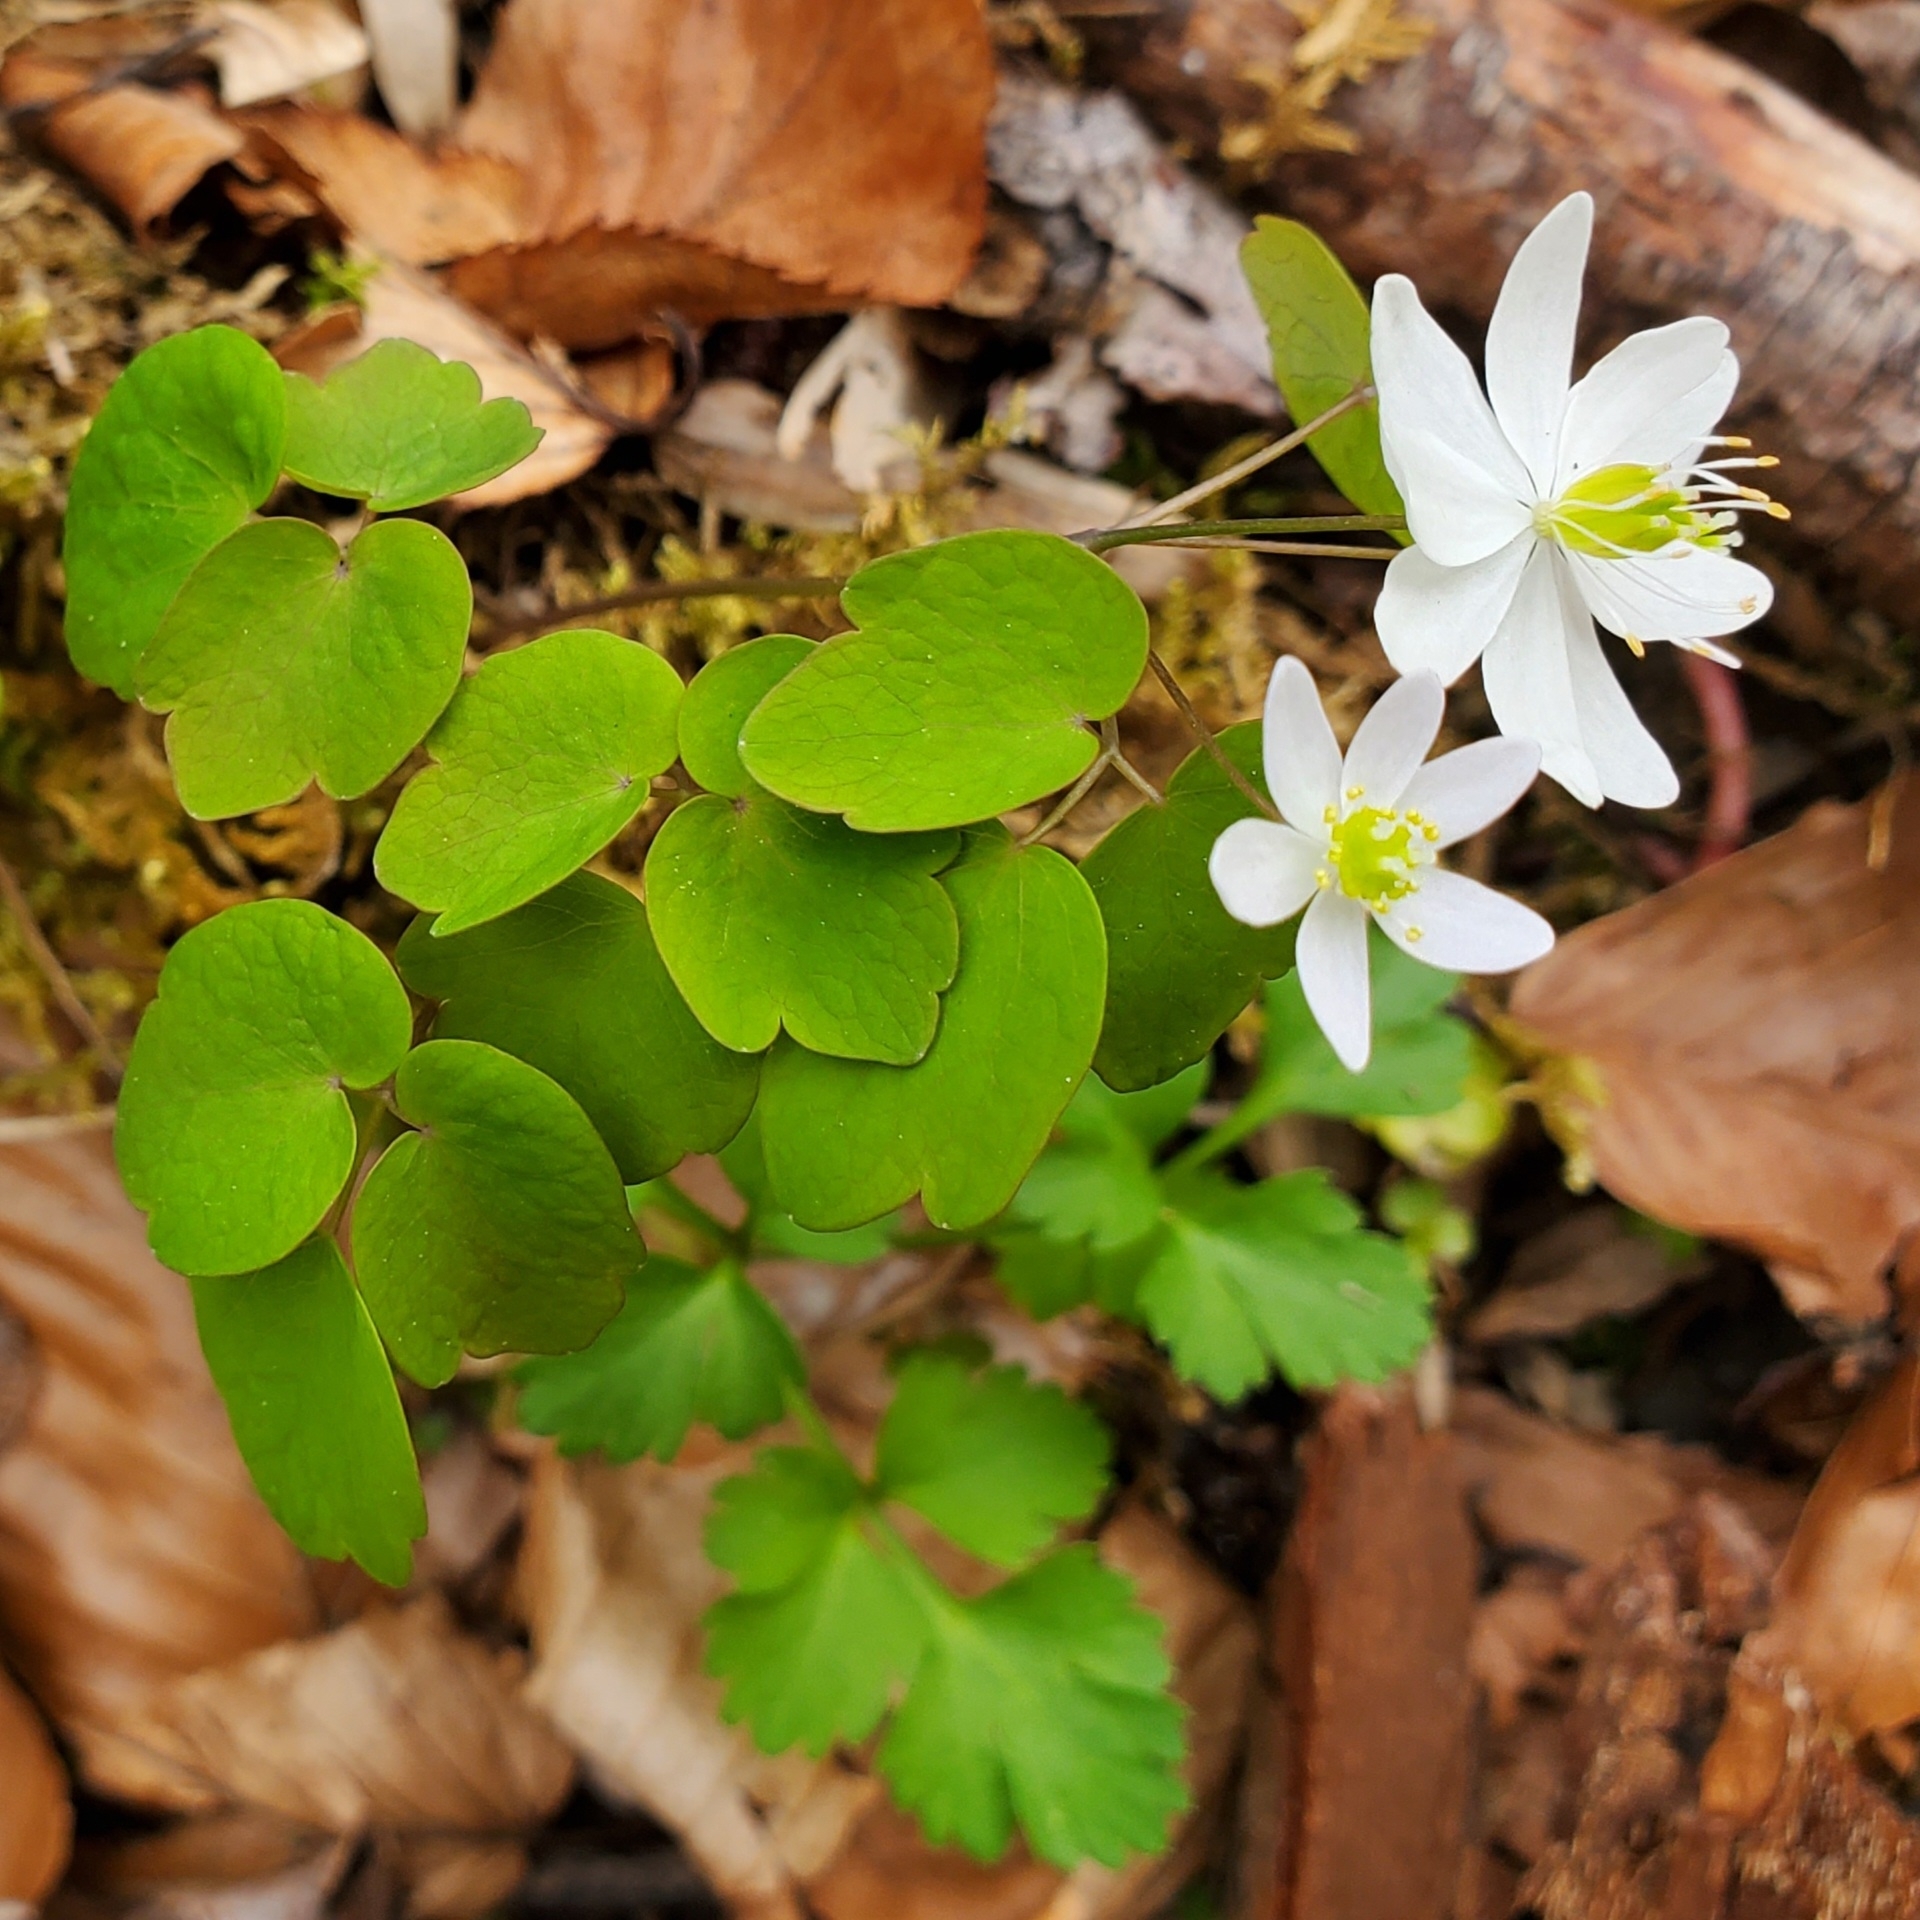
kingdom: Plantae
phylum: Tracheophyta
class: Magnoliopsida
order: Ranunculales
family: Ranunculaceae
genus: Thalictrum
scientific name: Thalictrum thalictroides
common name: Rue-anemone
